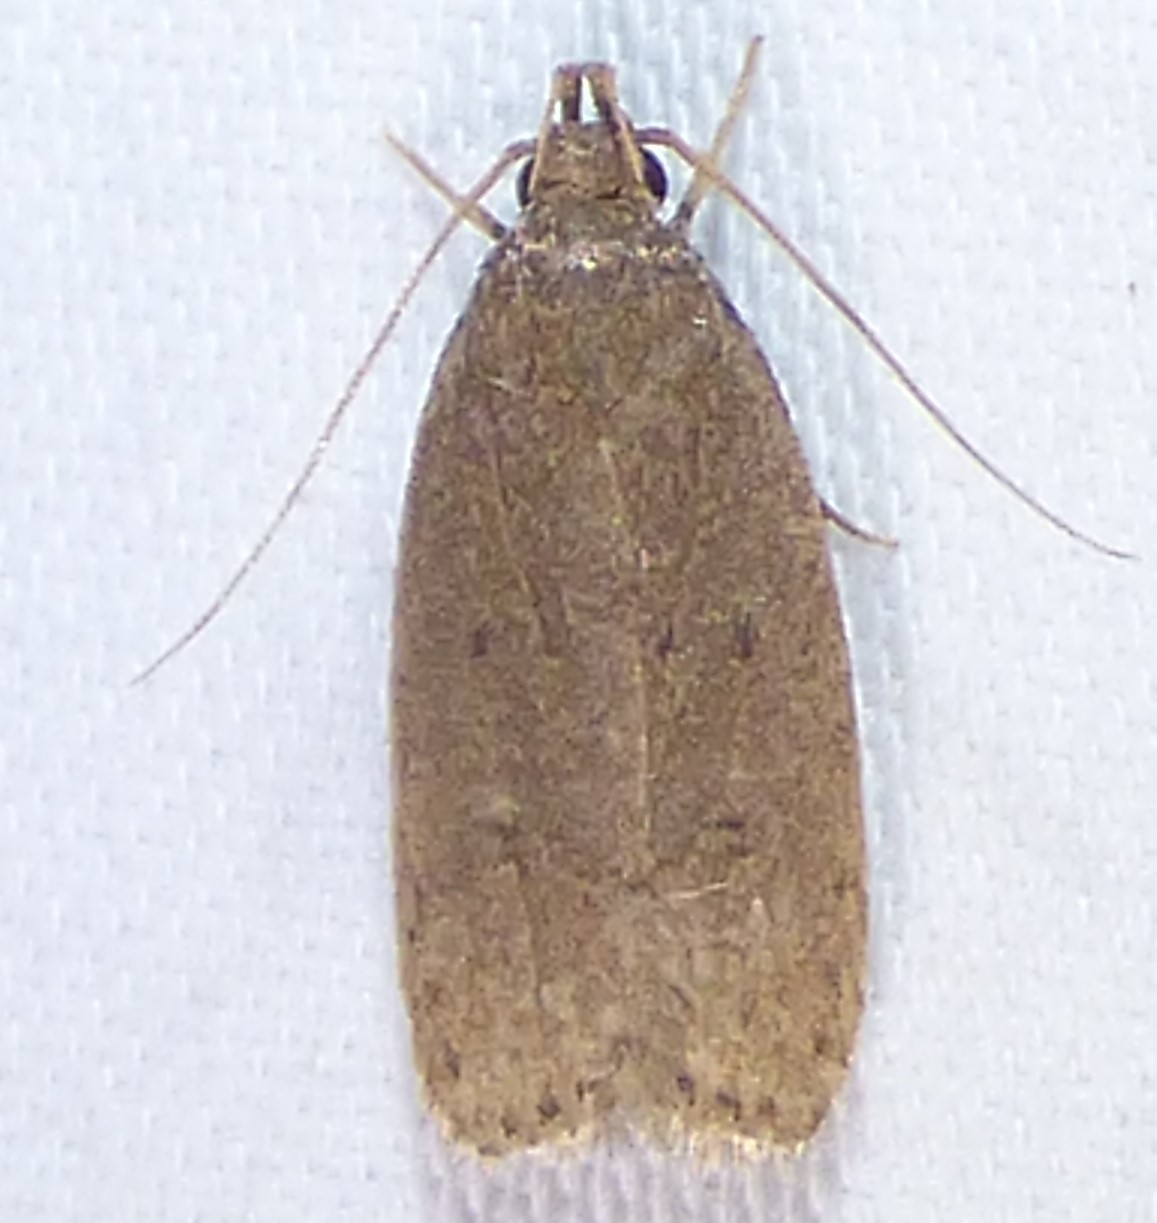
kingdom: Animalia
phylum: Arthropoda
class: Insecta
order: Lepidoptera
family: Autostichidae
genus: Autosticha
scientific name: Autosticha kyotensis
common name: Kyoto moth
